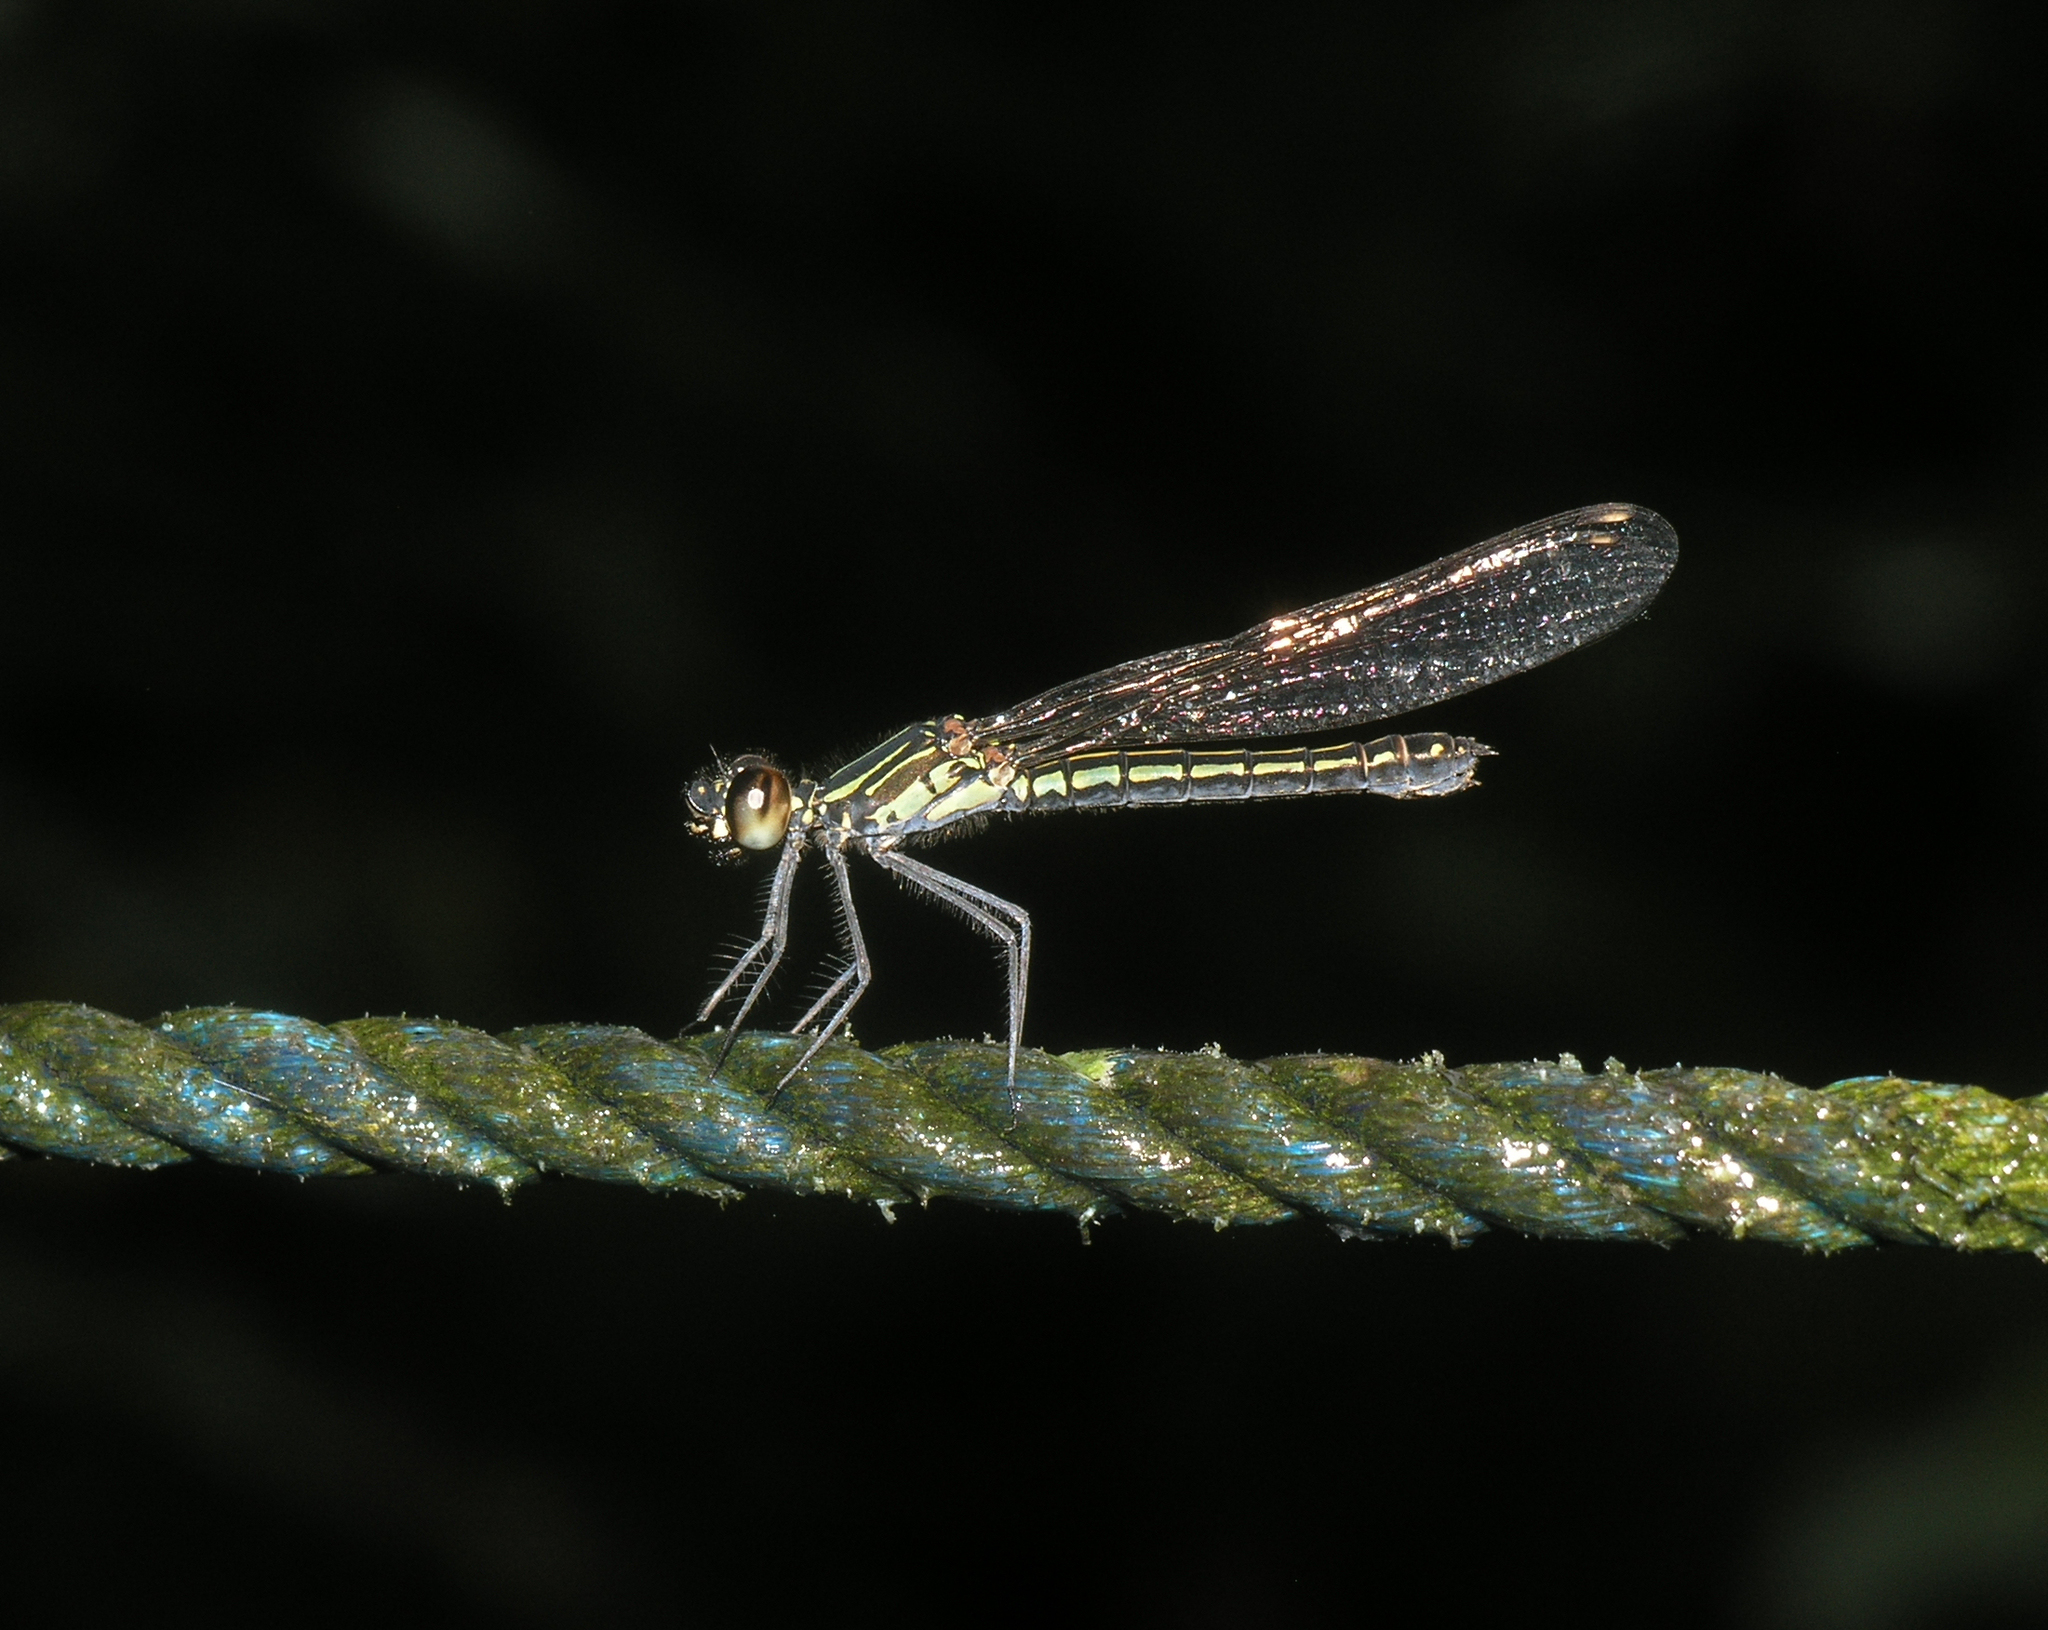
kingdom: Animalia
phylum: Arthropoda
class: Insecta
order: Odonata
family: Chlorocyphidae
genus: Libellago
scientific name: Libellago lineata
